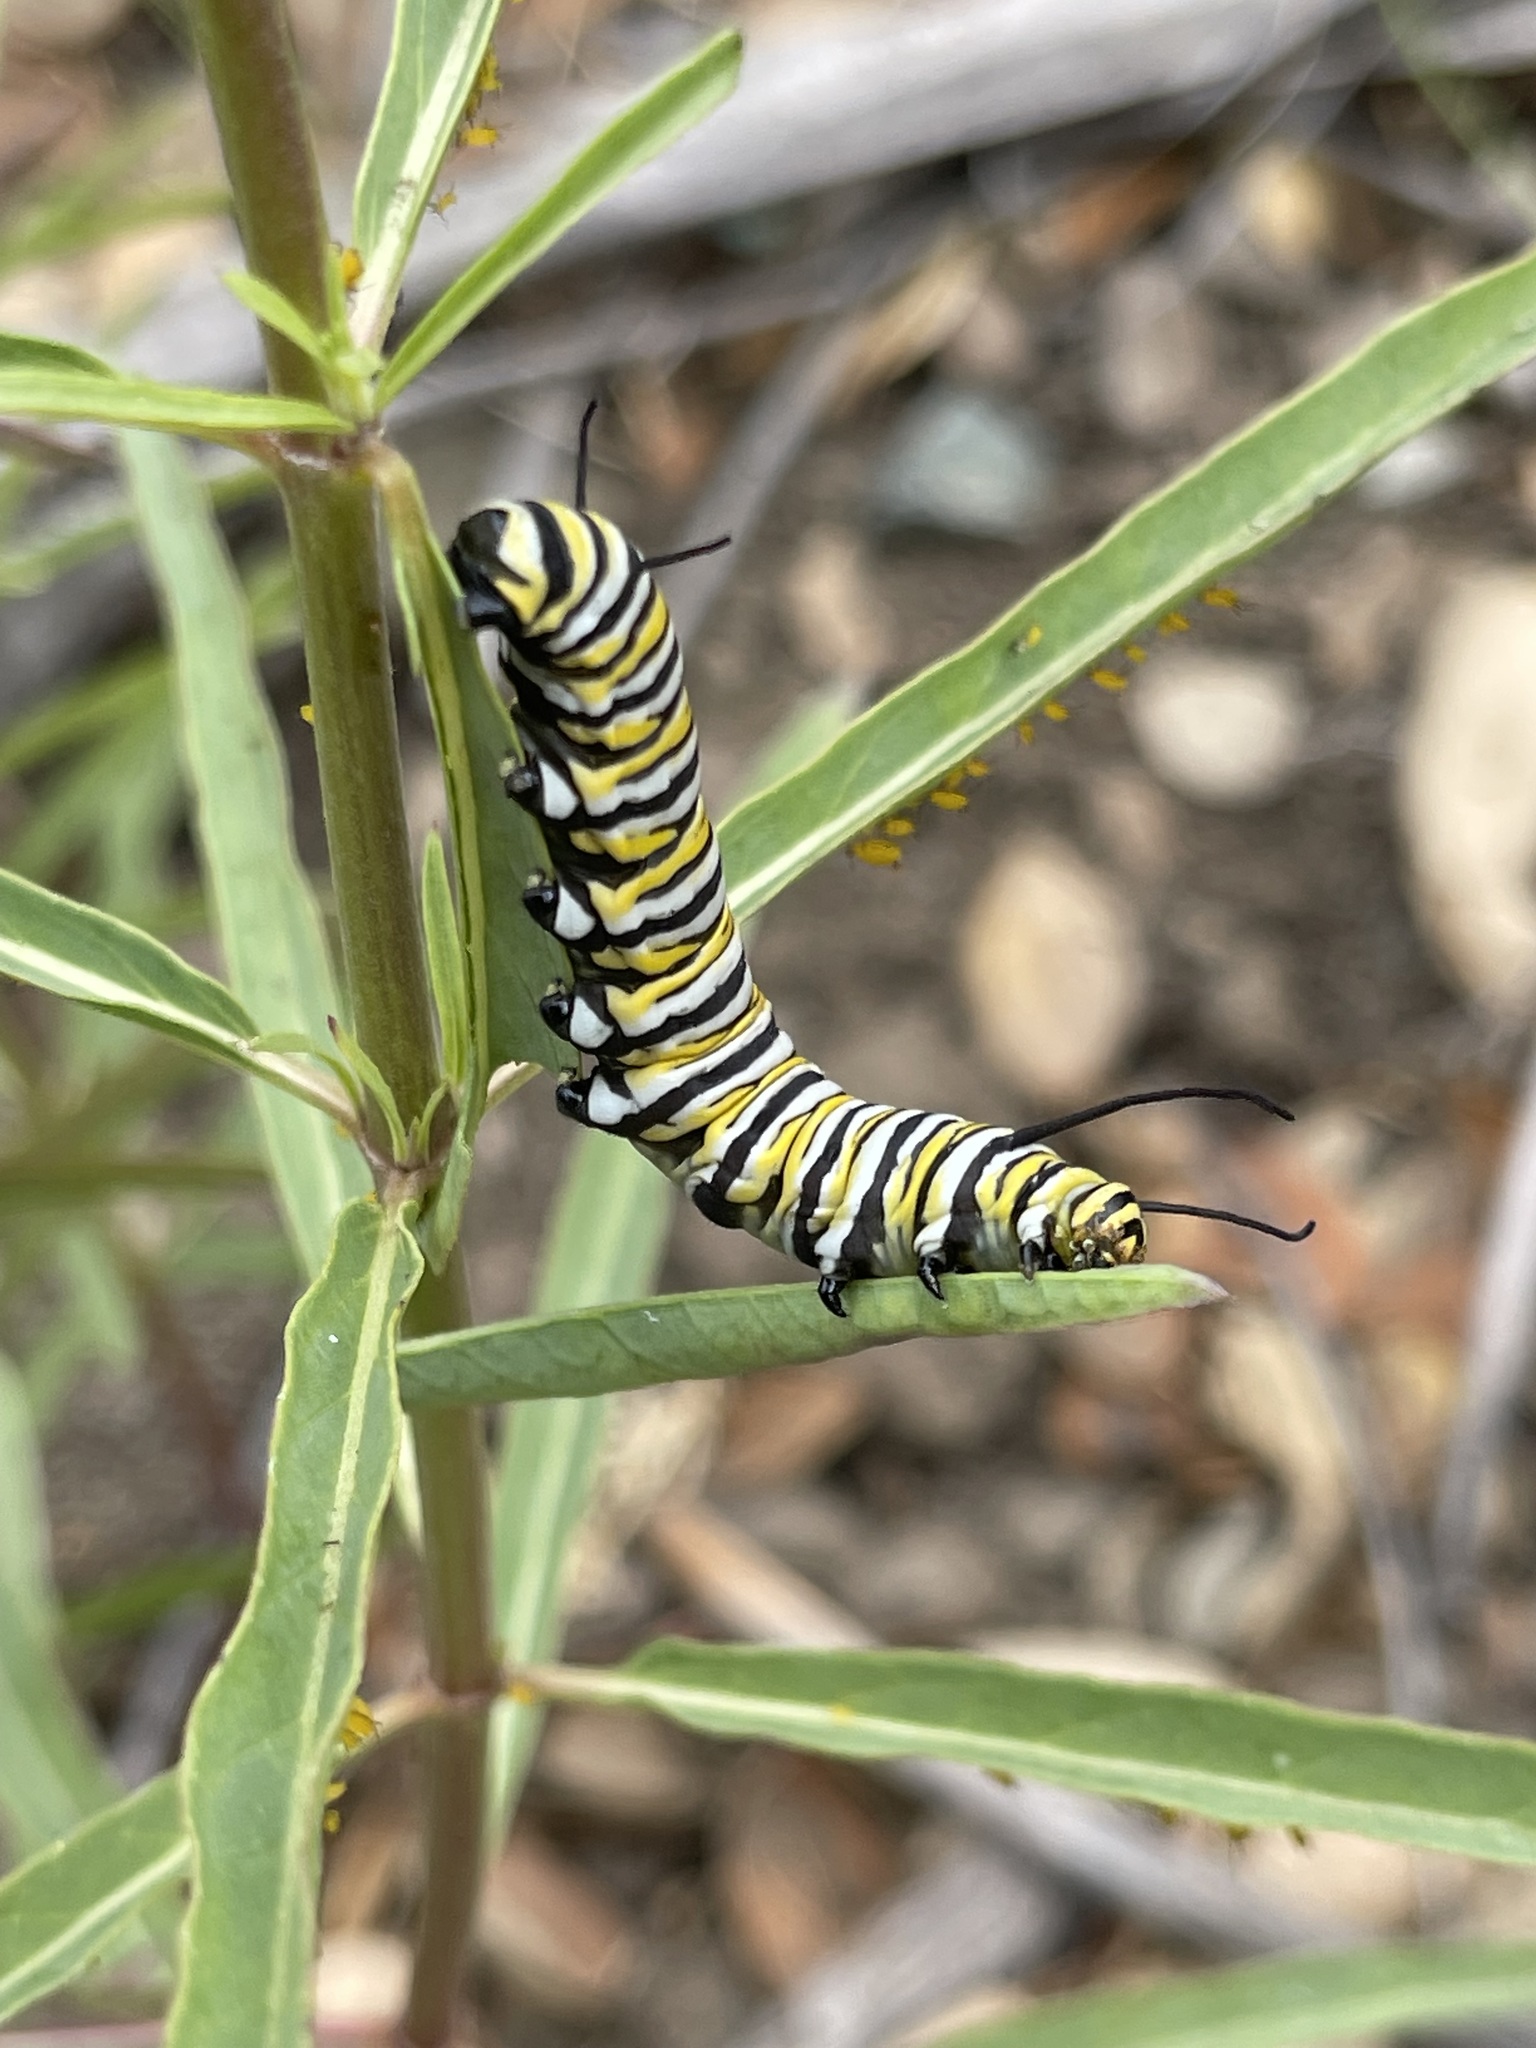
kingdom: Animalia
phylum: Arthropoda
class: Insecta
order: Lepidoptera
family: Nymphalidae
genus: Danaus
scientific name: Danaus plexippus
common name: Monarch
